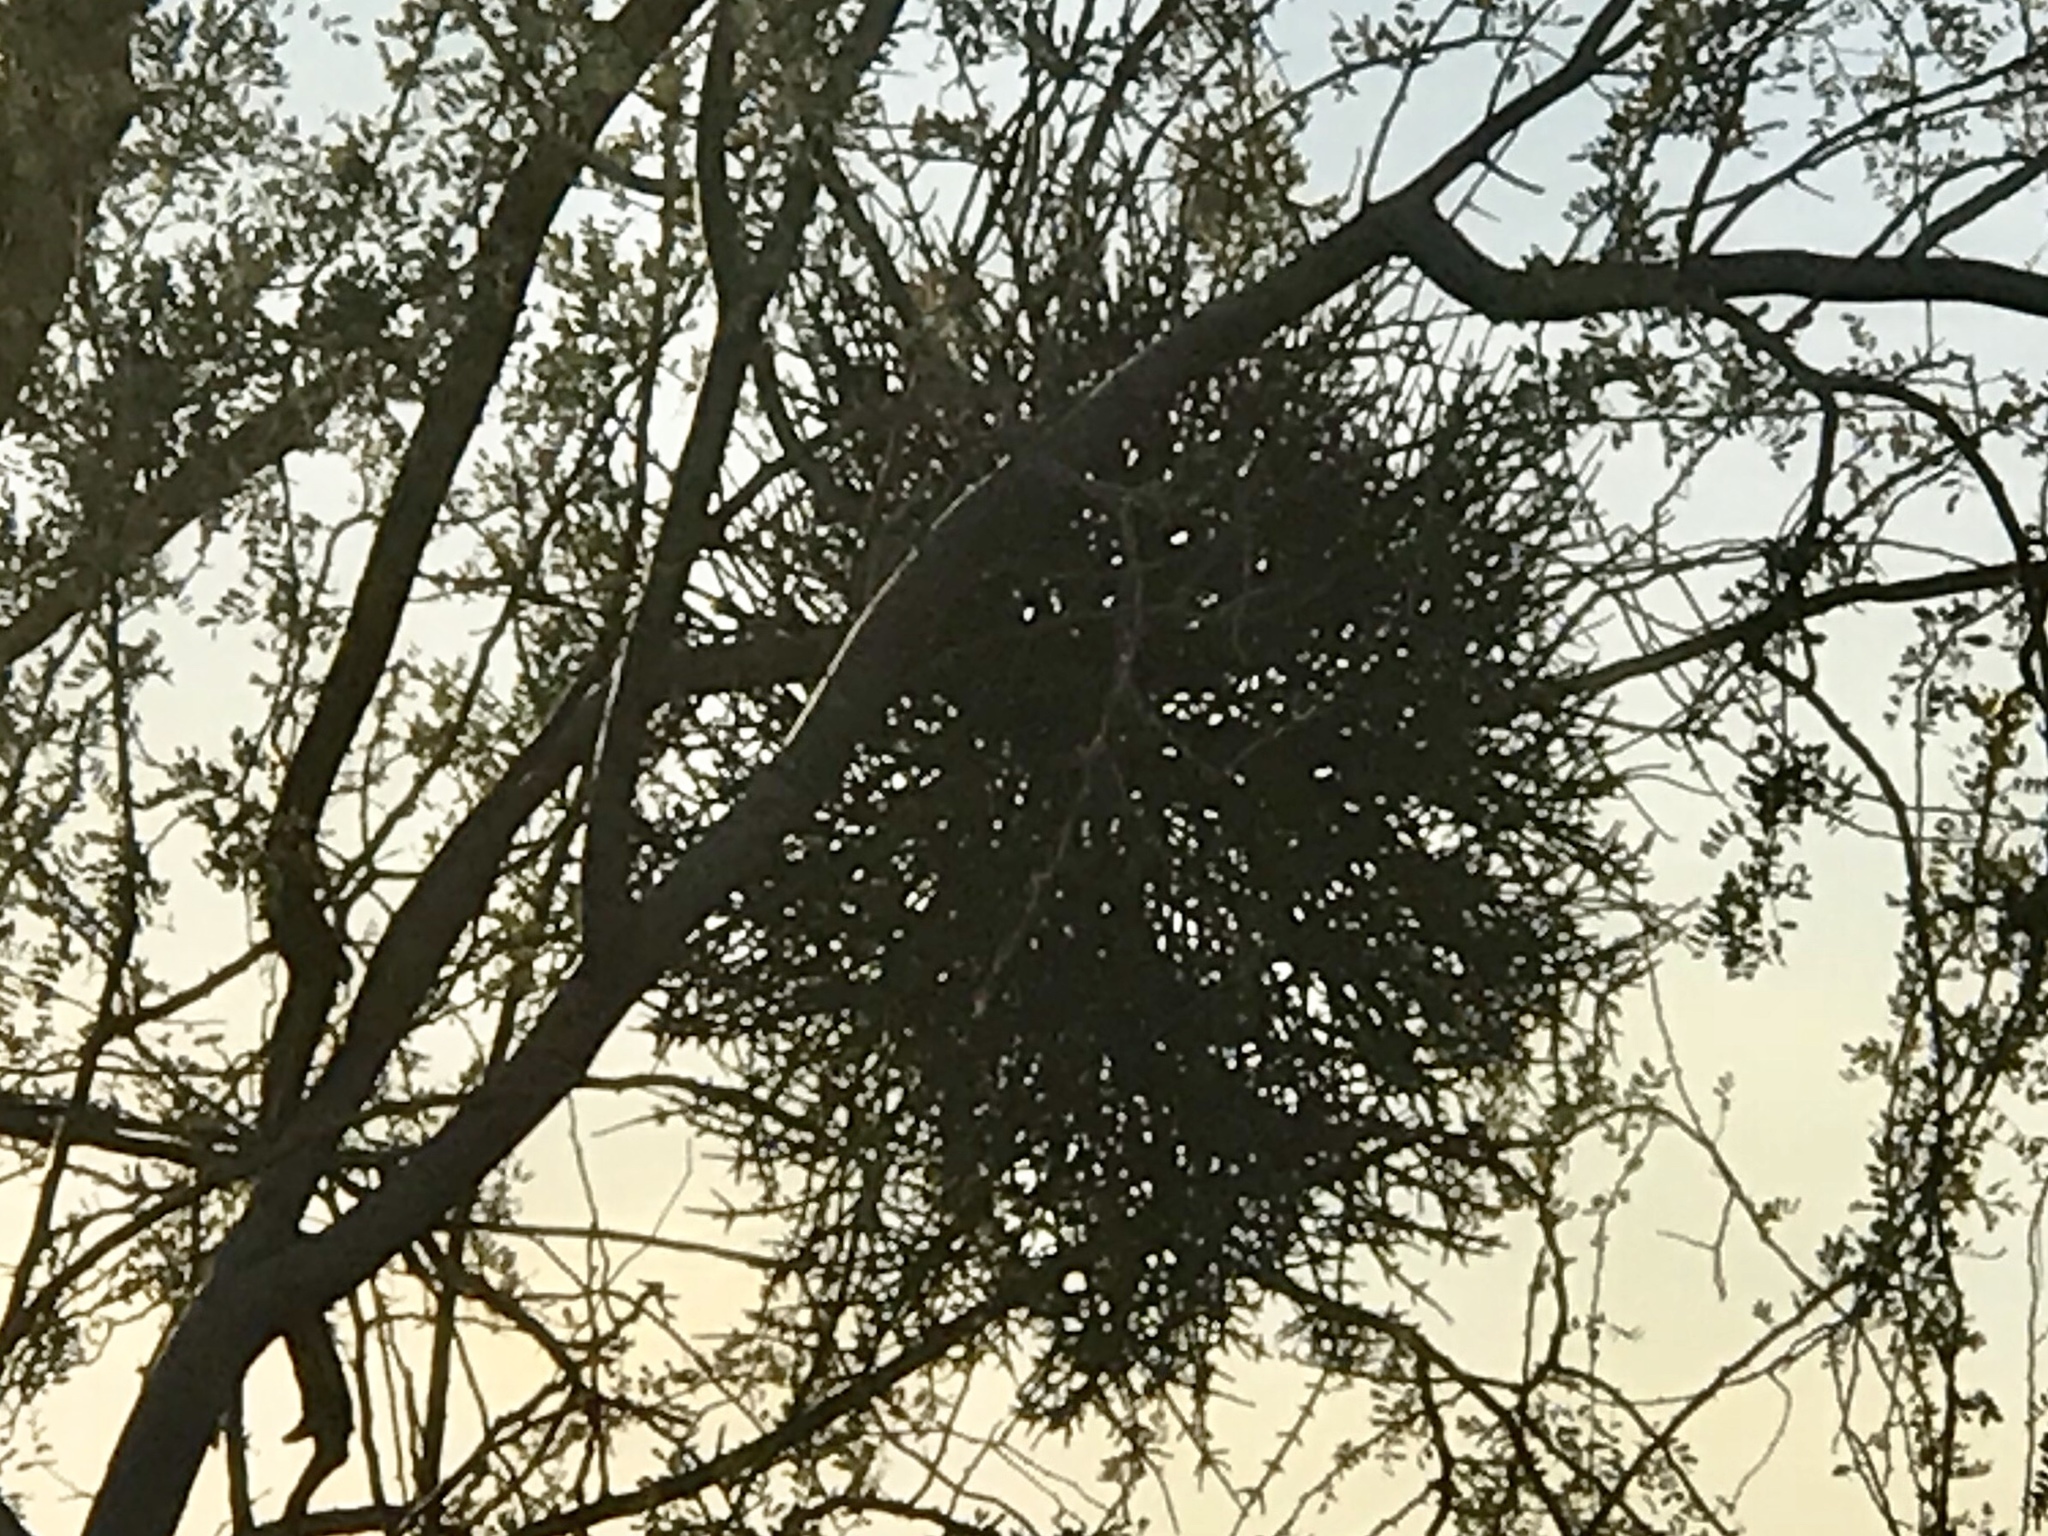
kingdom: Plantae
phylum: Tracheophyta
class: Magnoliopsida
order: Santalales
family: Viscaceae
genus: Phoradendron
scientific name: Phoradendron californicum
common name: Acacia mistletoe
